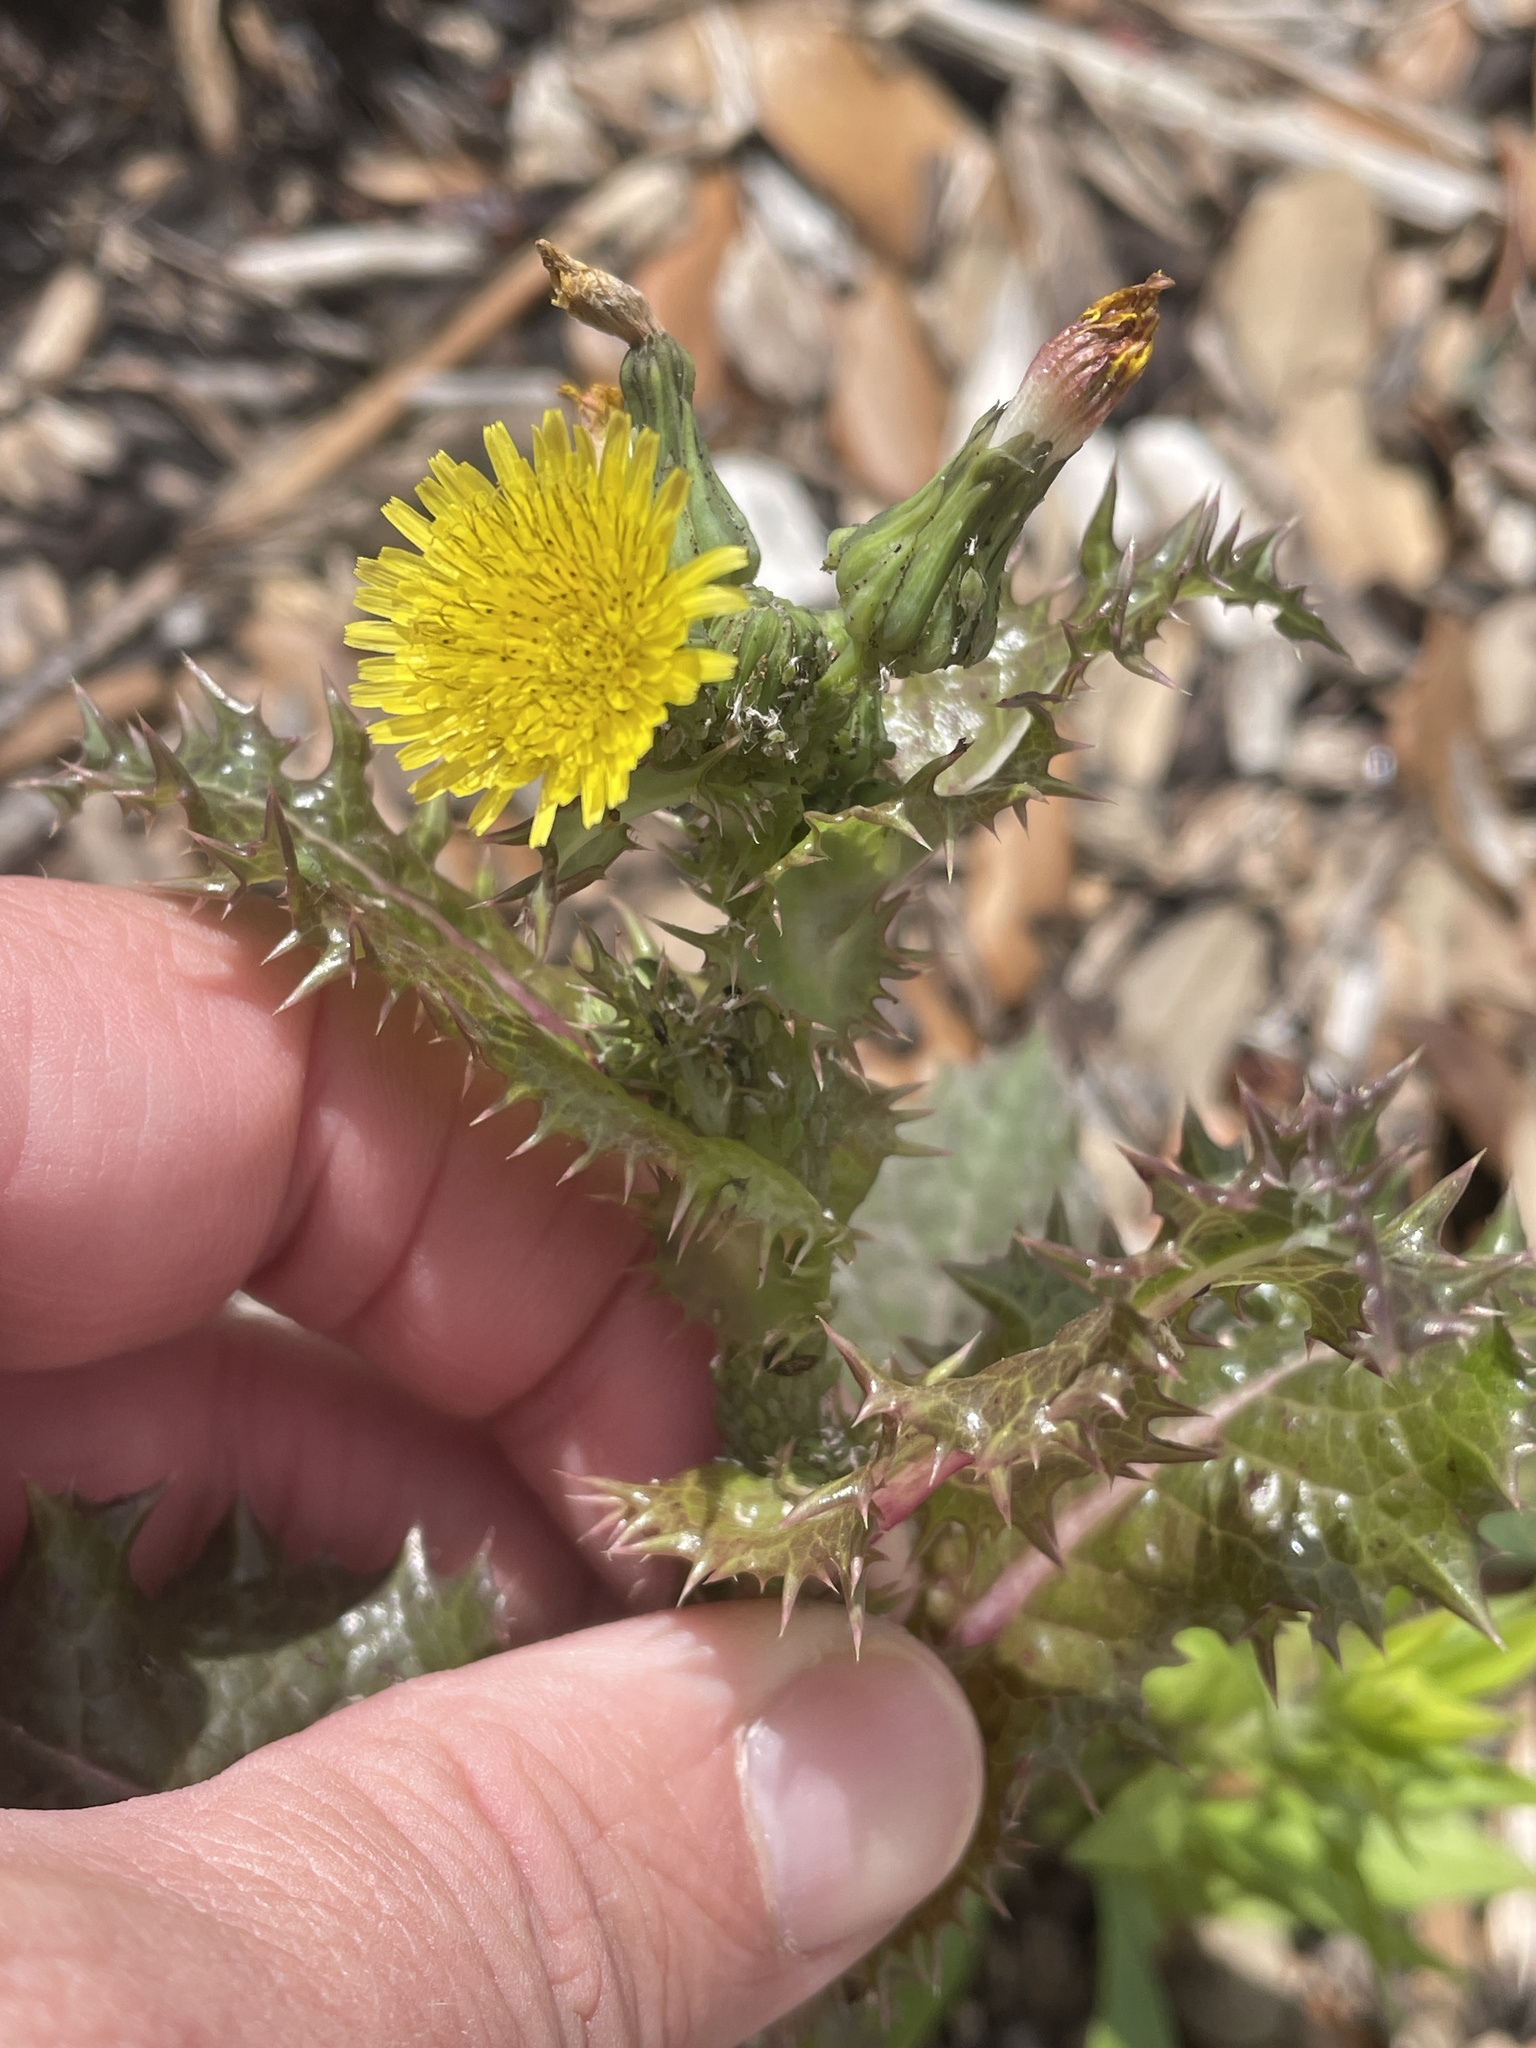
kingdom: Plantae
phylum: Tracheophyta
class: Magnoliopsida
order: Asterales
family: Asteraceae
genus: Sonchus
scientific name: Sonchus asper
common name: Prickly sow-thistle
